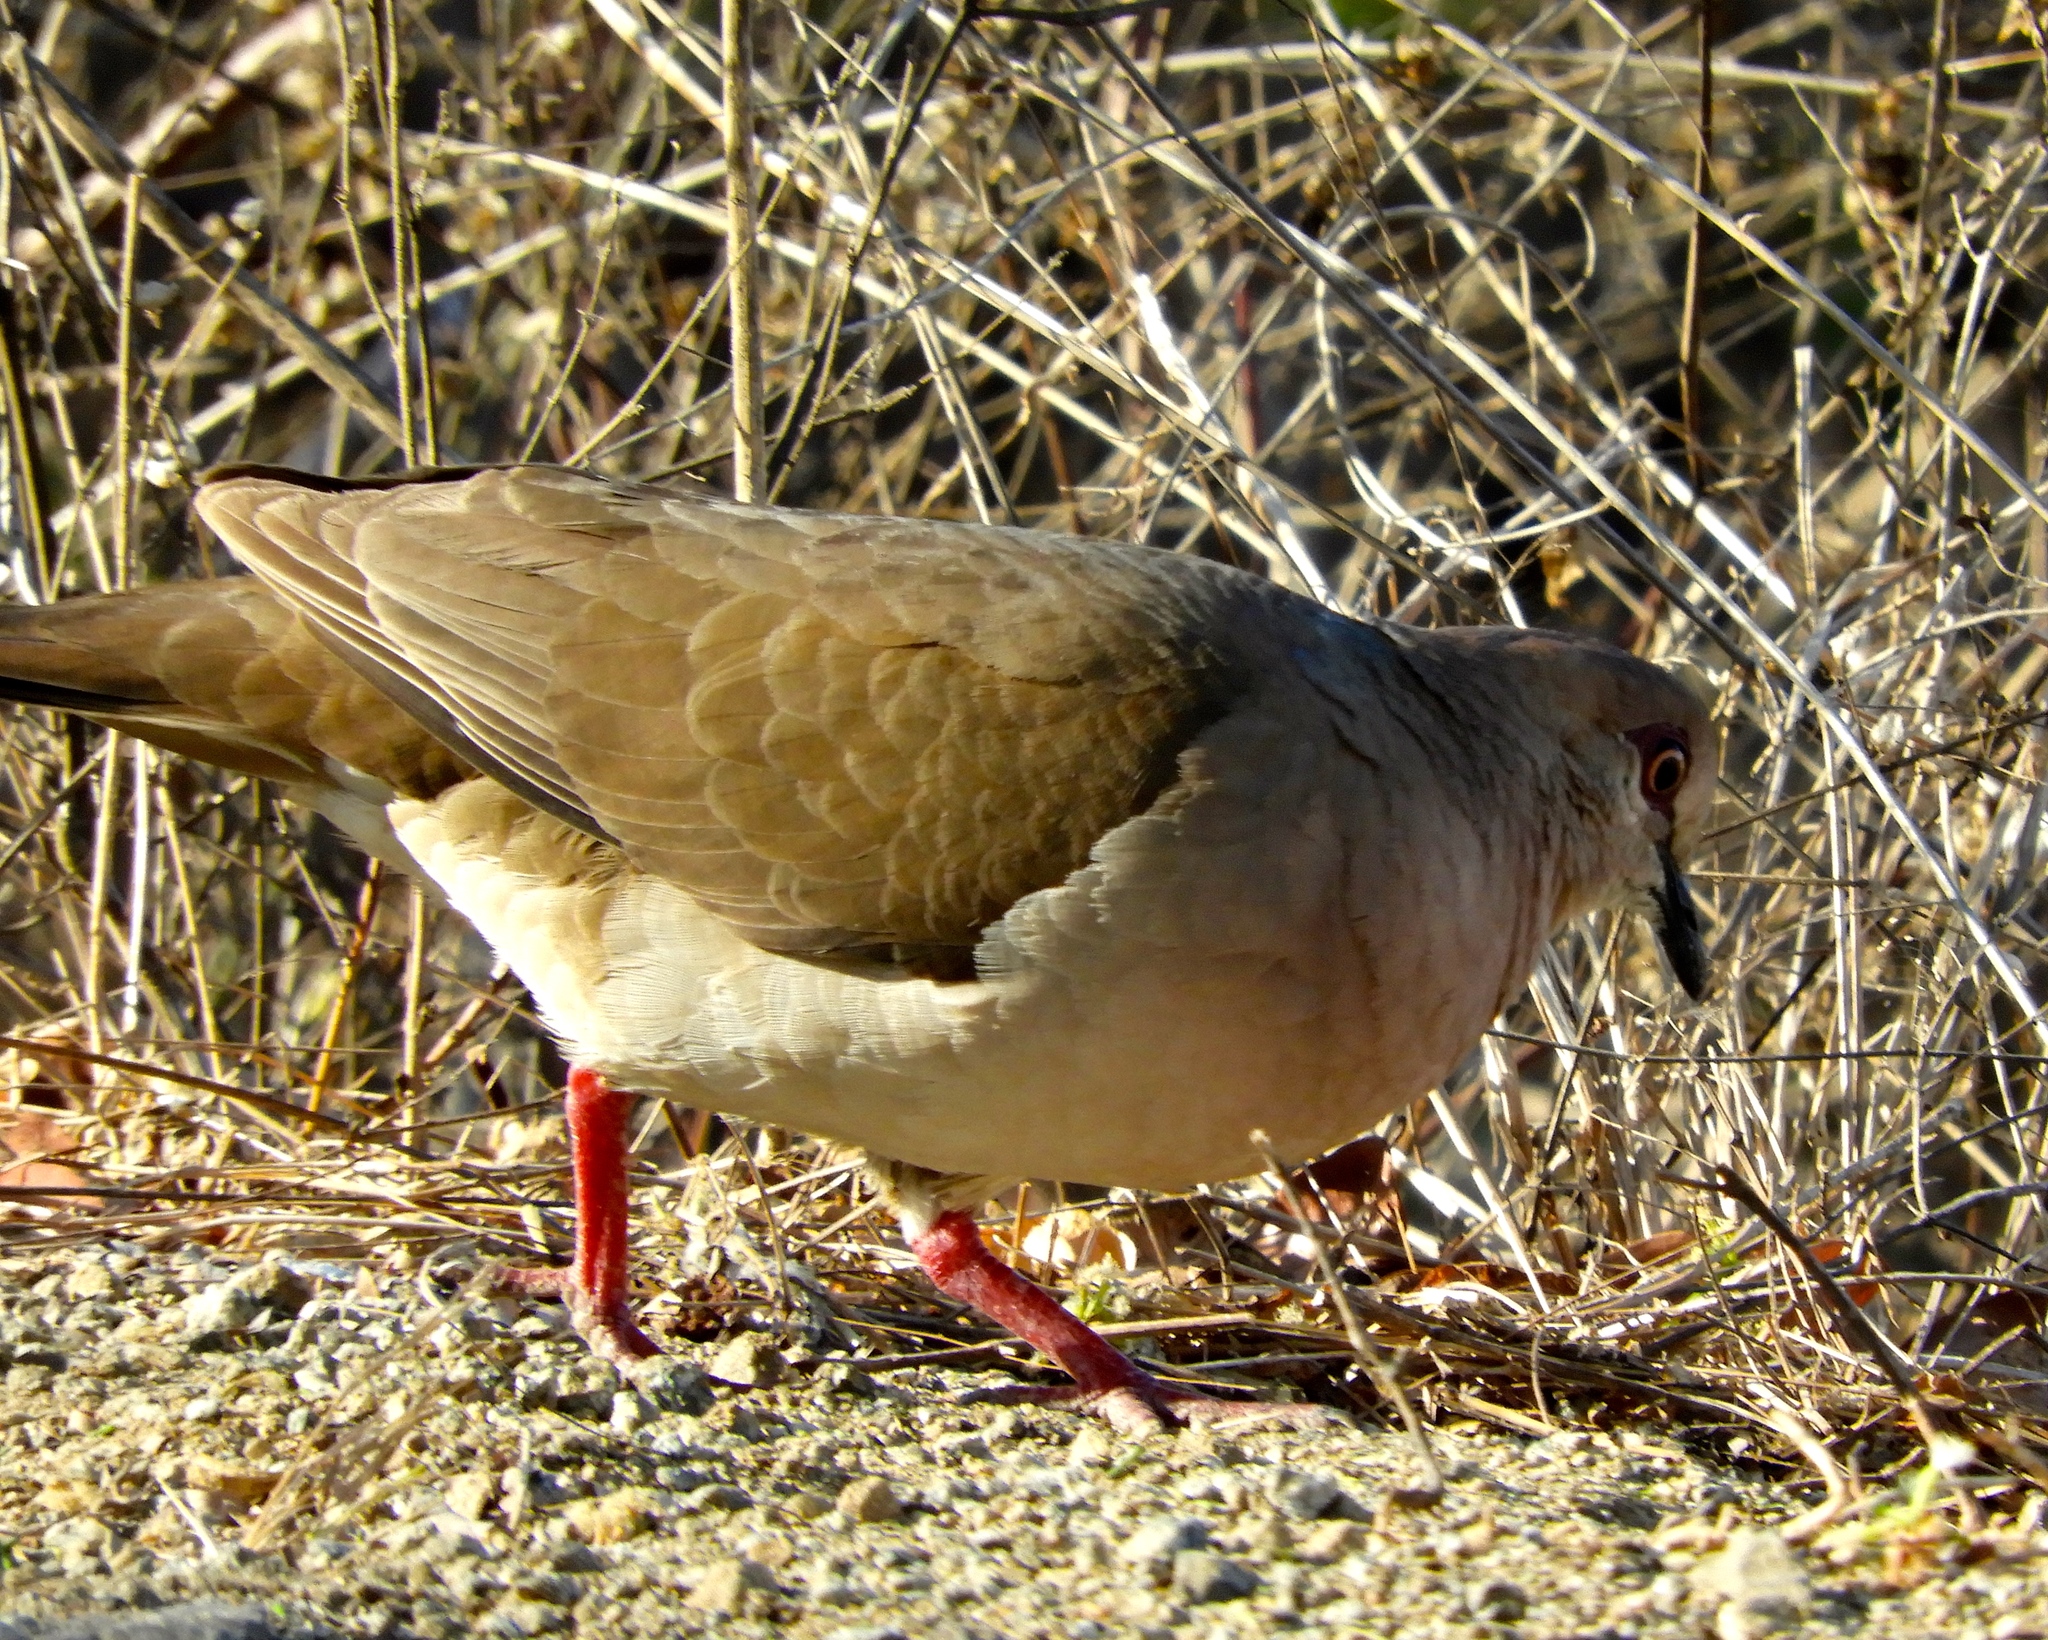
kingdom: Animalia
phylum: Chordata
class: Aves
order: Columbiformes
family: Columbidae
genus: Leptotila
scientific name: Leptotila verreauxi
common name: White-tipped dove
